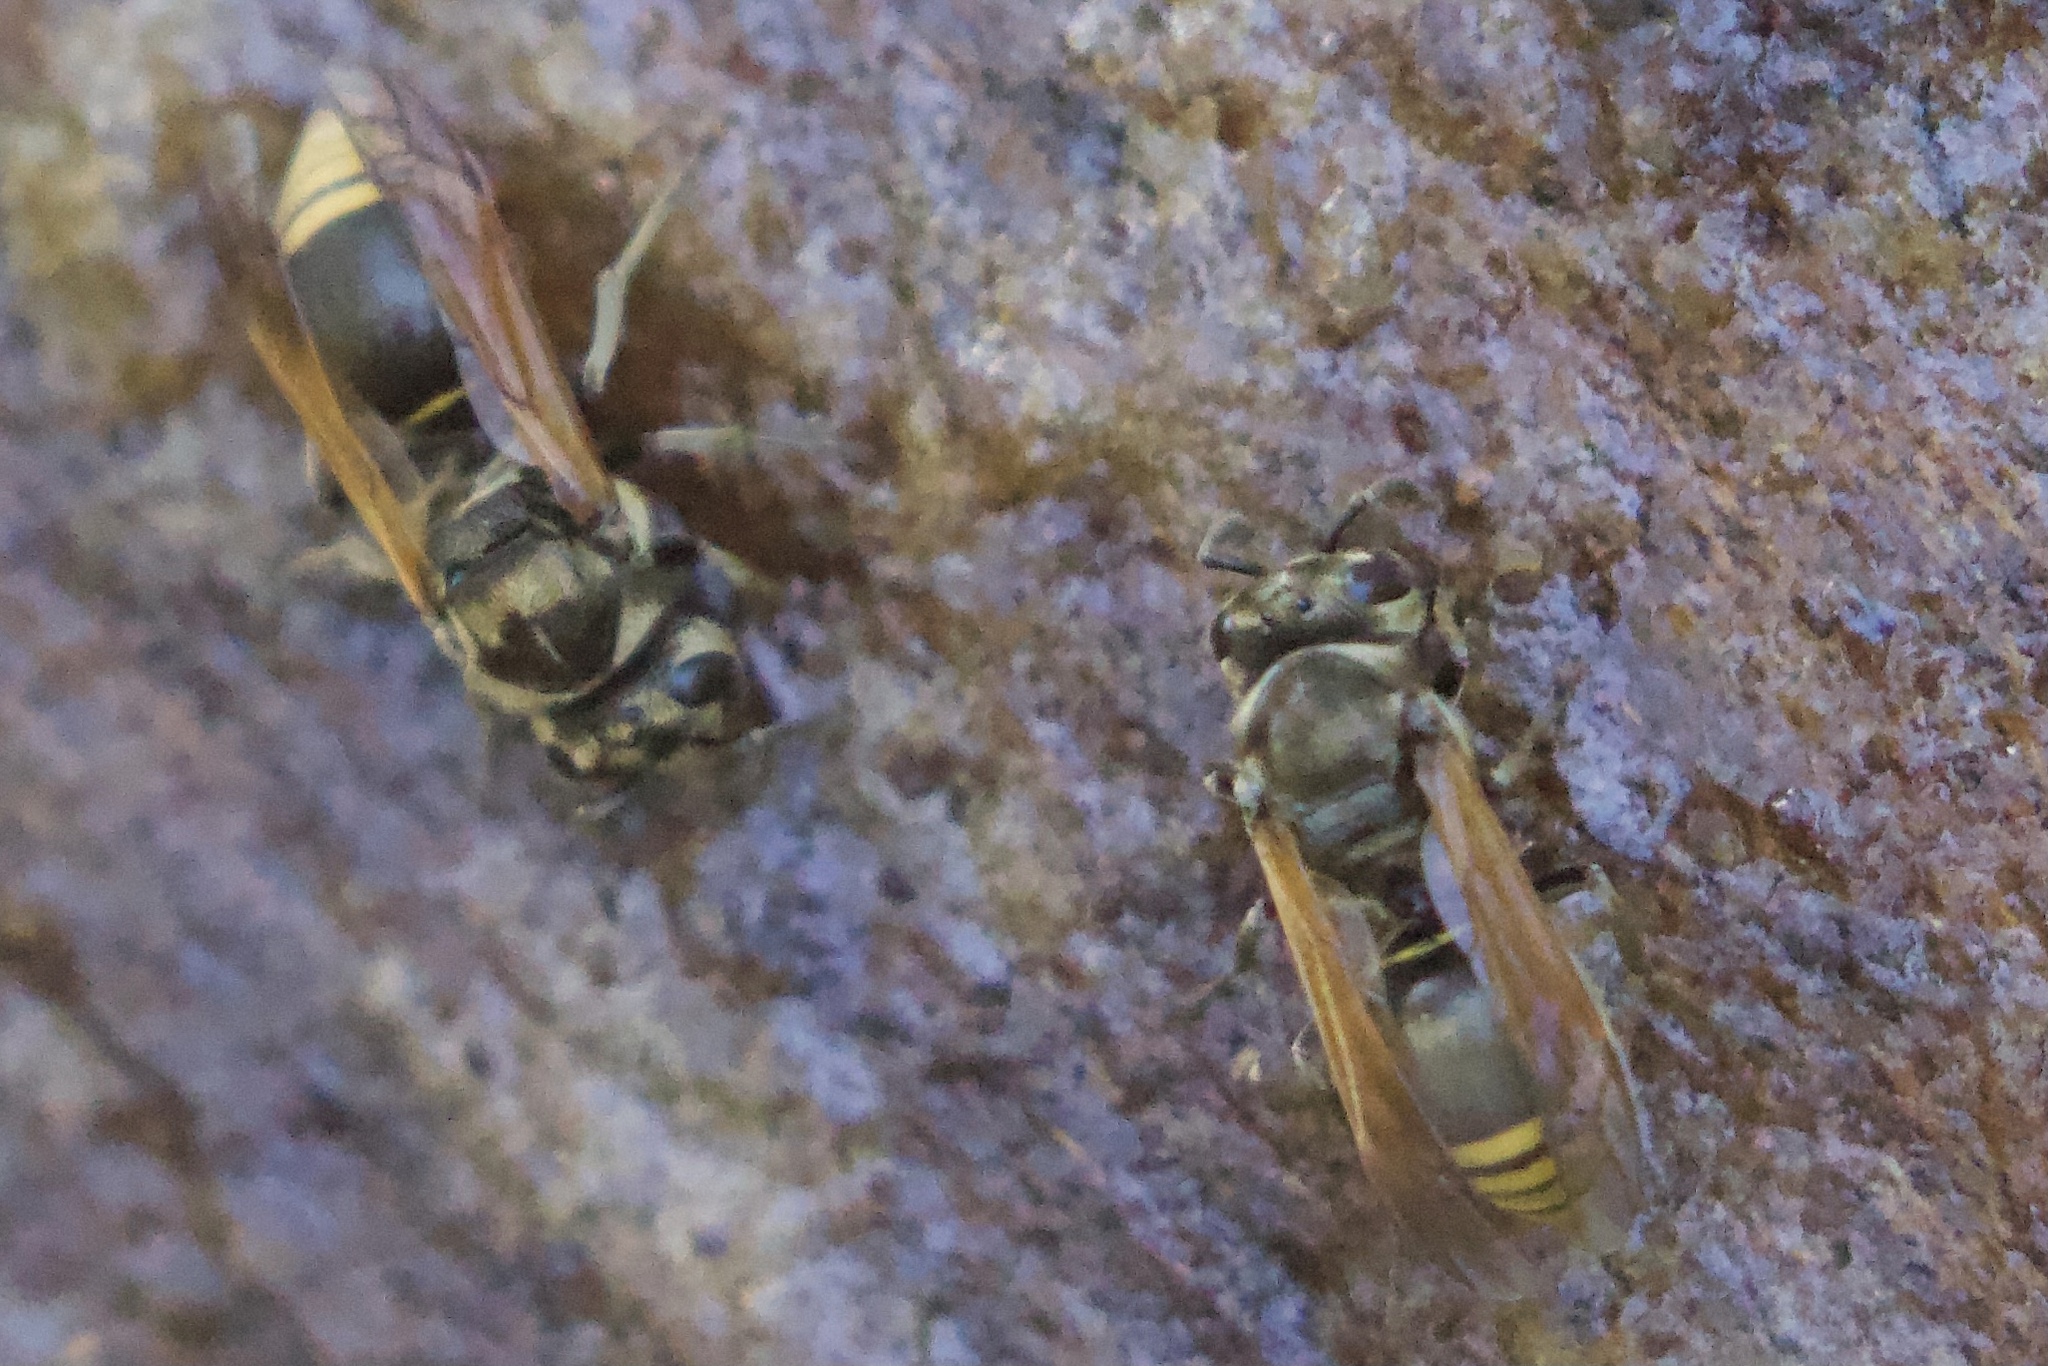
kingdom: Animalia
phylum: Arthropoda
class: Insecta
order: Hymenoptera
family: Vespidae
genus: Brachygastra
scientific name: Brachygastra mellifica
